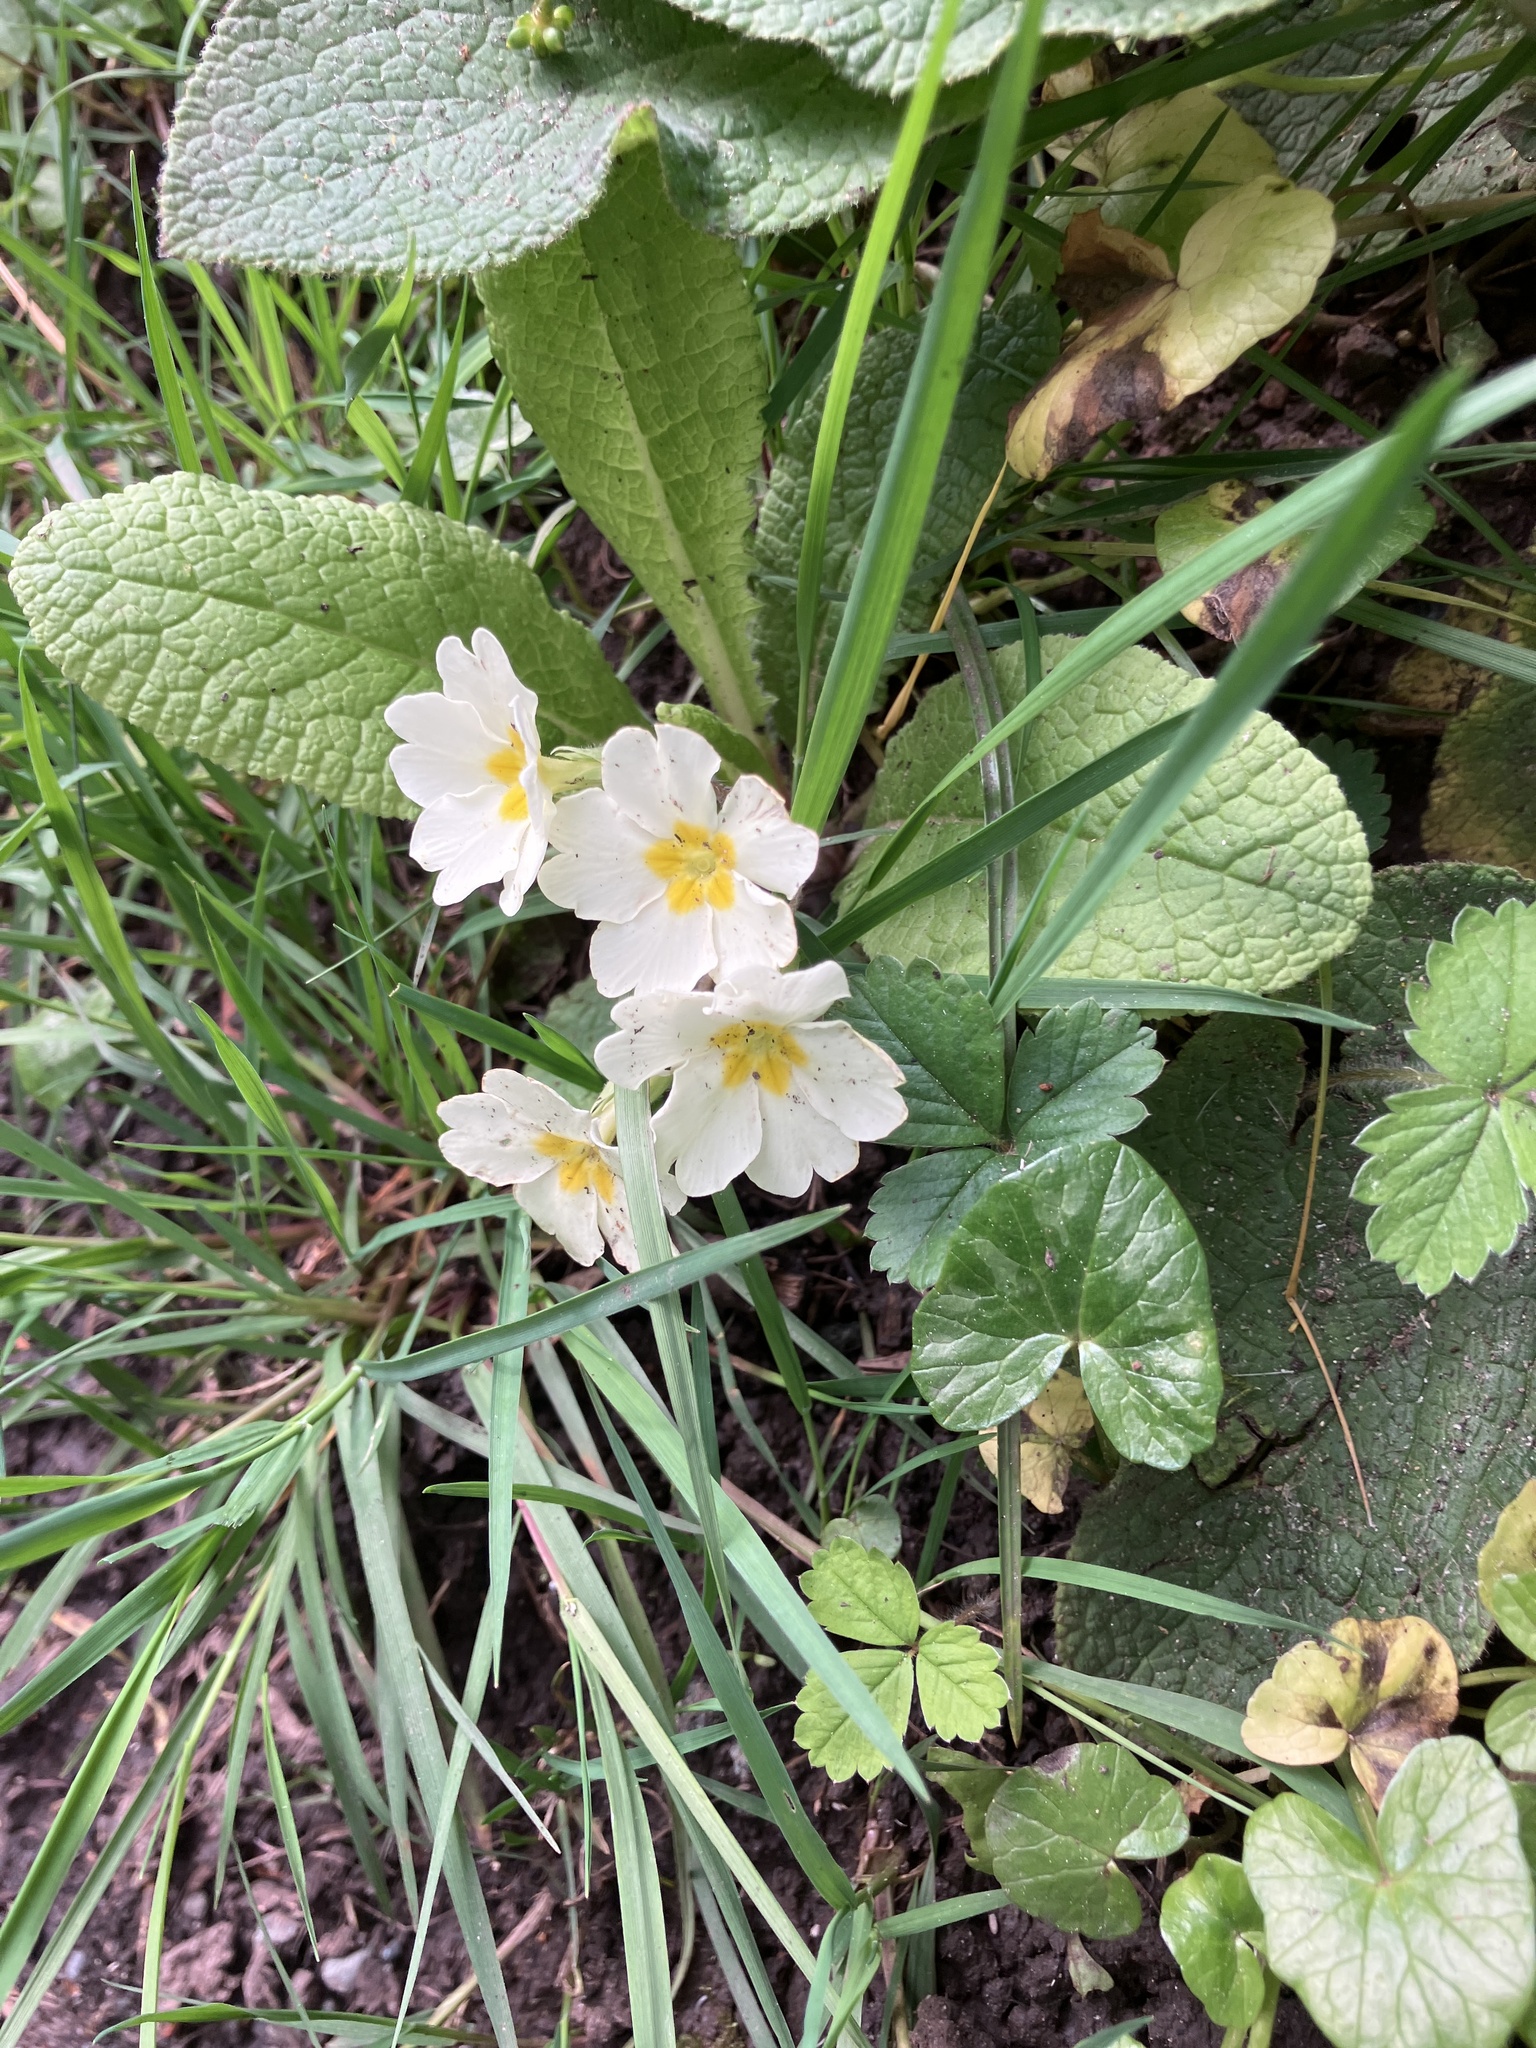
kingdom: Plantae
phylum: Tracheophyta
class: Magnoliopsida
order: Ericales
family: Primulaceae
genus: Primula
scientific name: Primula vulgaris
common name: Primrose
